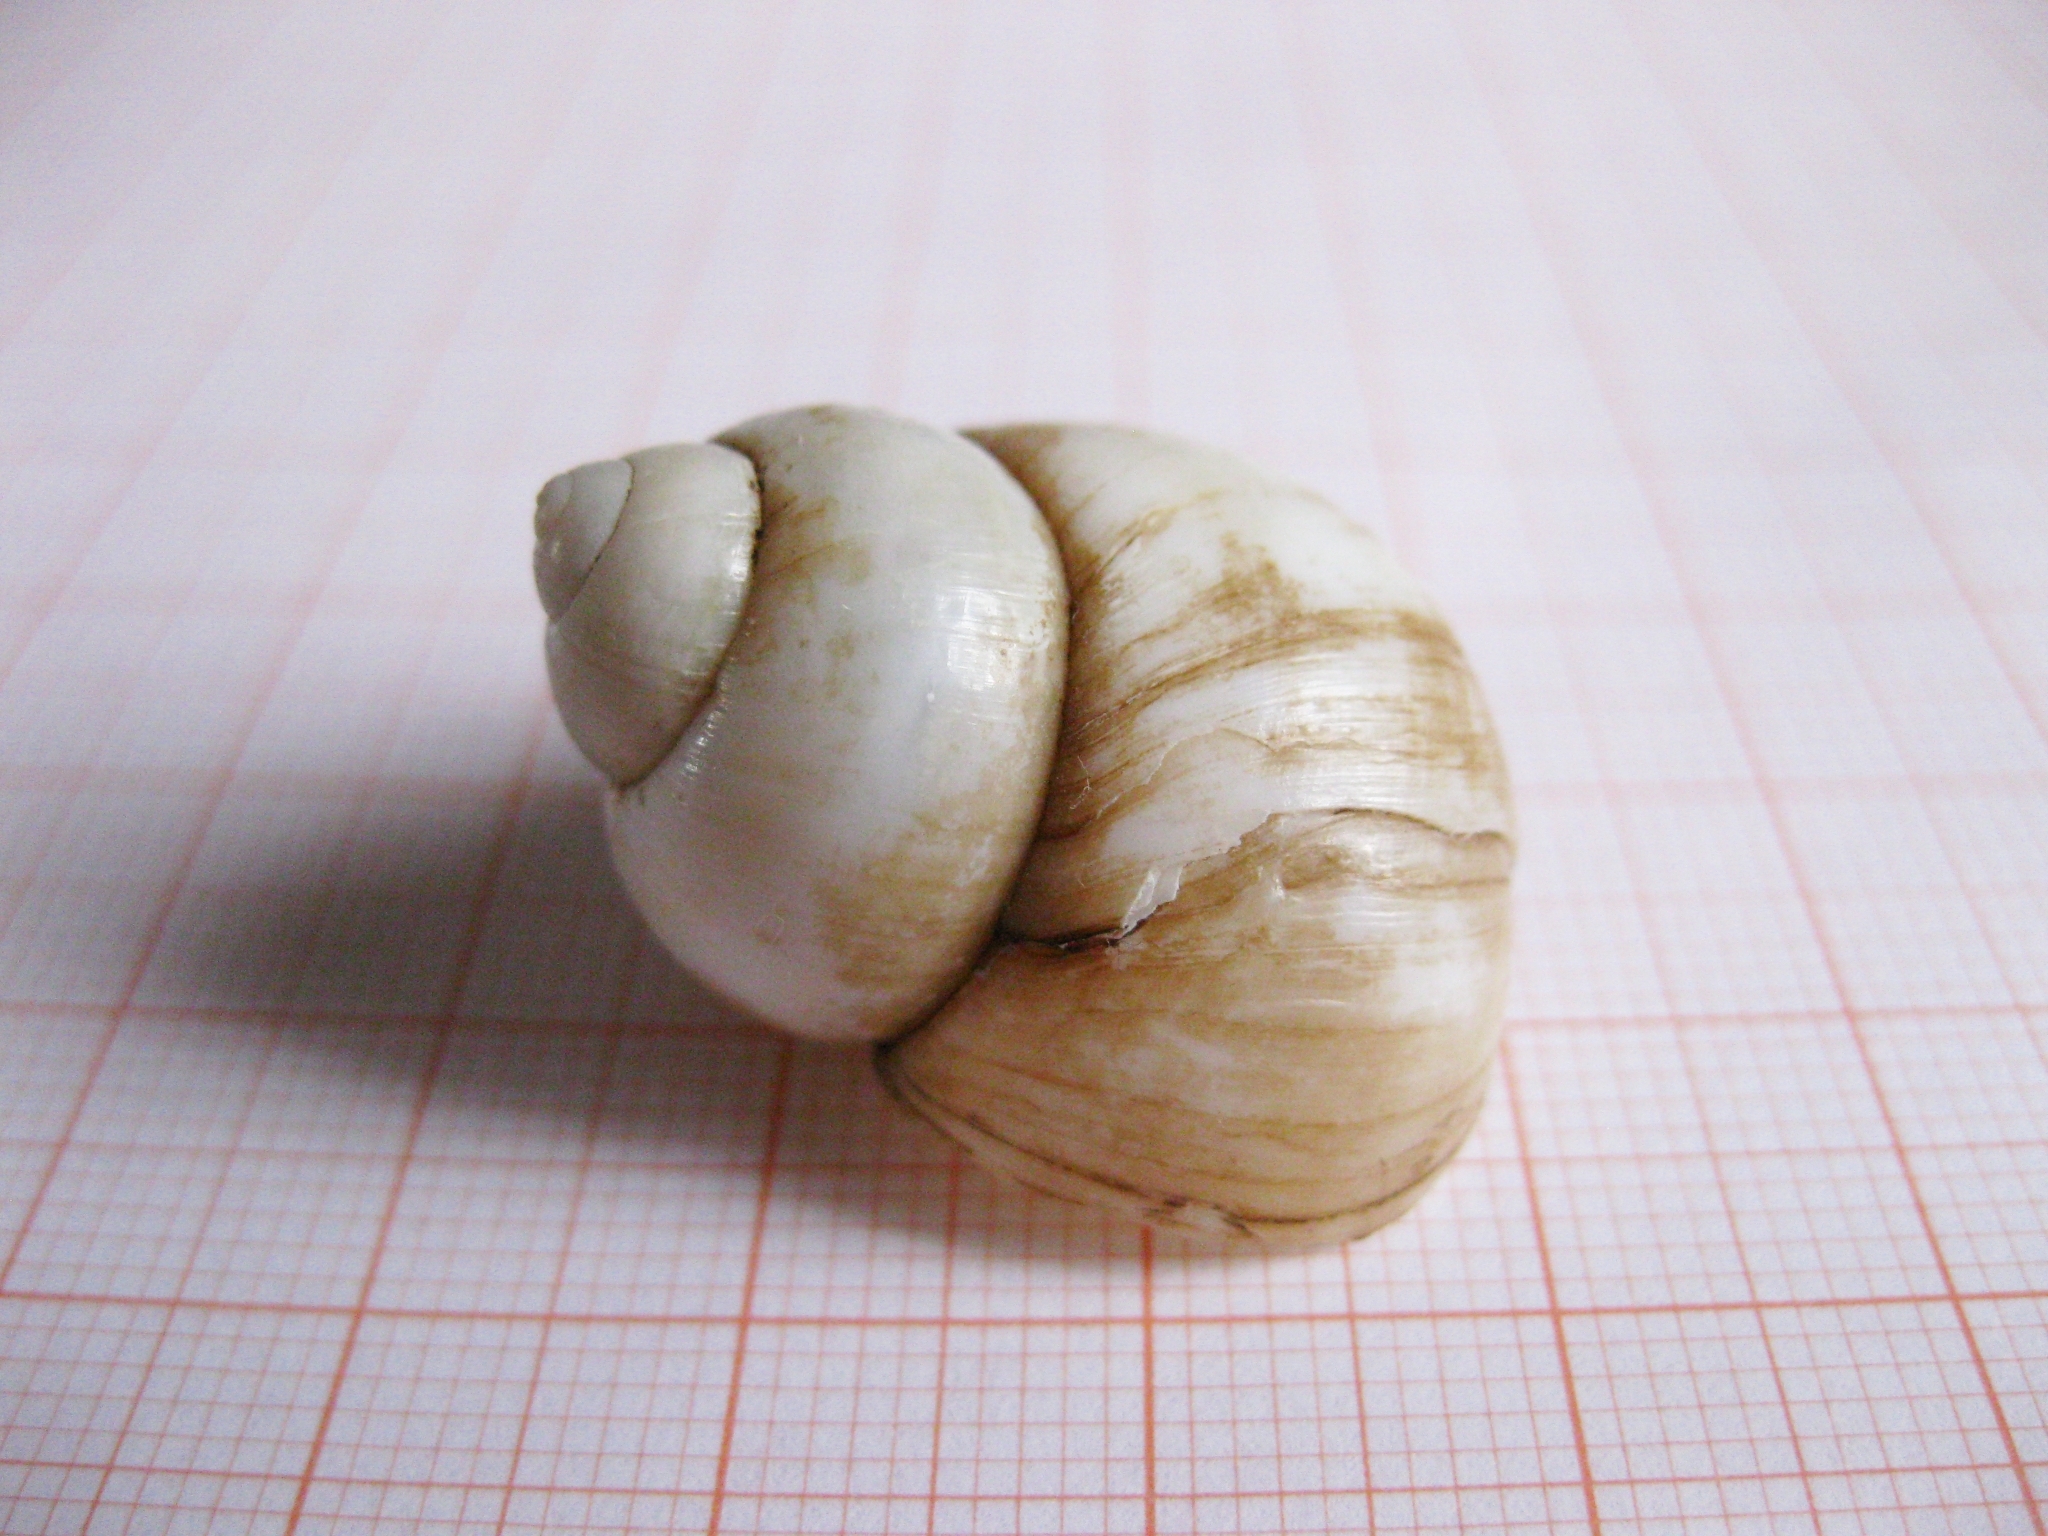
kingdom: Animalia
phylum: Mollusca
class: Gastropoda
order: Architaenioglossa
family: Viviparidae
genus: Viviparus
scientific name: Viviparus viviparus
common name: River snail
